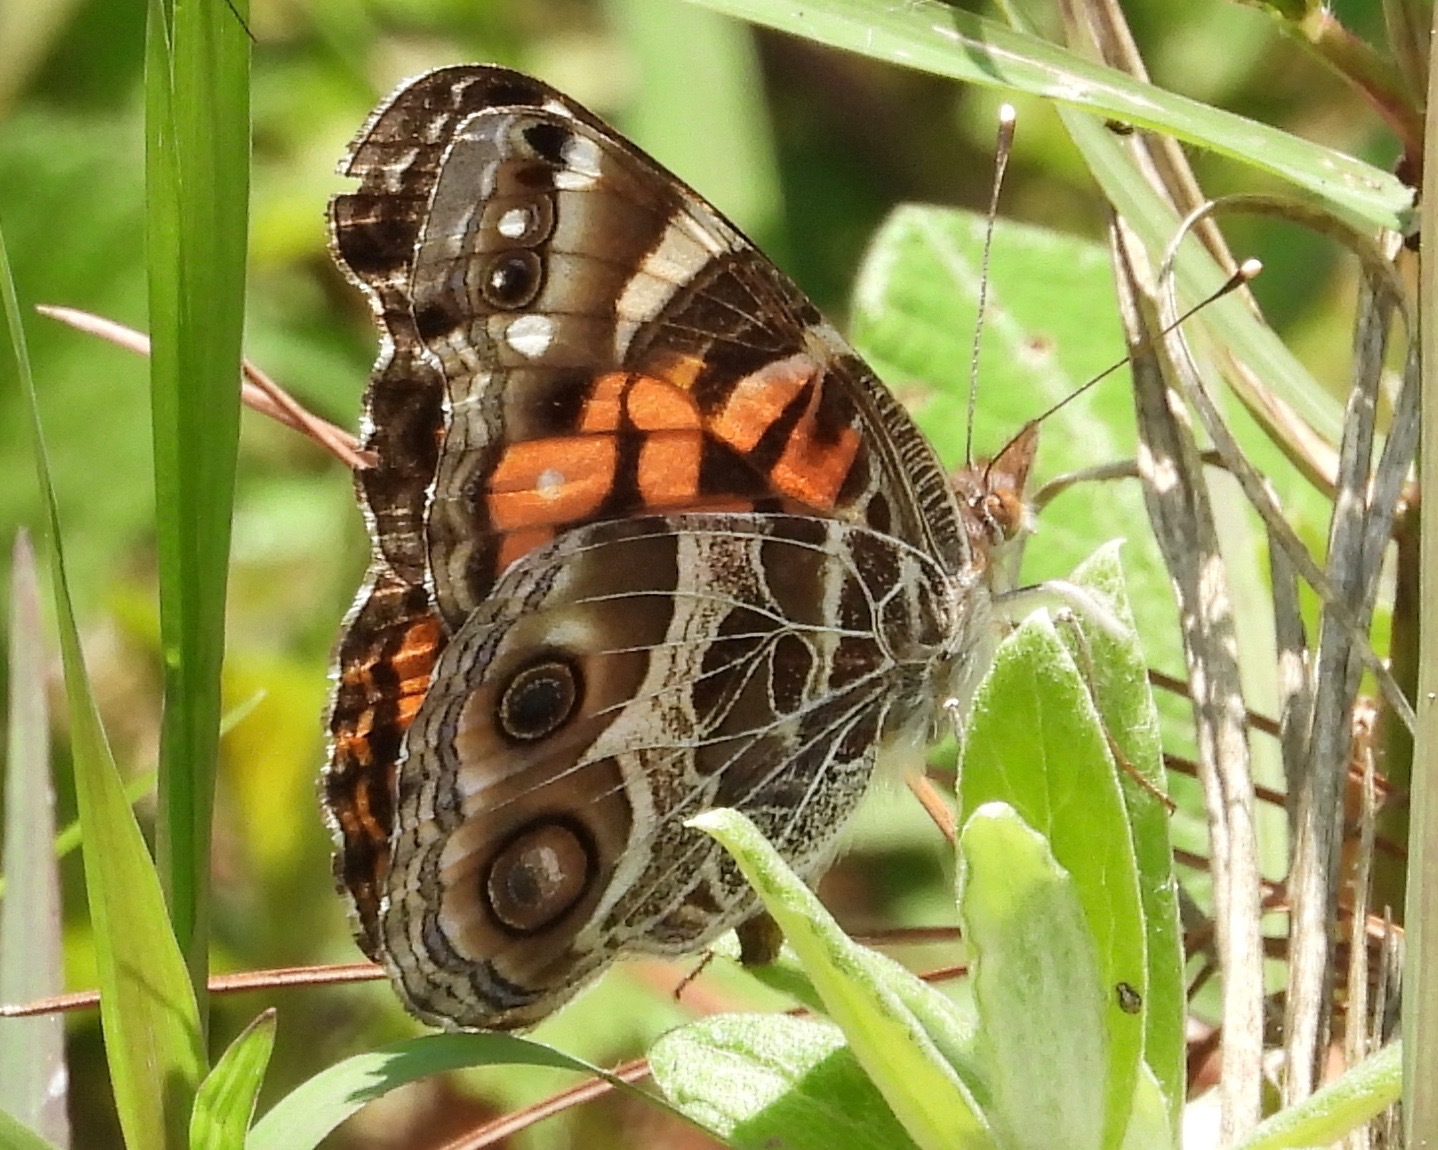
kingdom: Animalia
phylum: Arthropoda
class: Insecta
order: Lepidoptera
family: Nymphalidae
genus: Vanessa
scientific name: Vanessa virginiensis
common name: American lady
